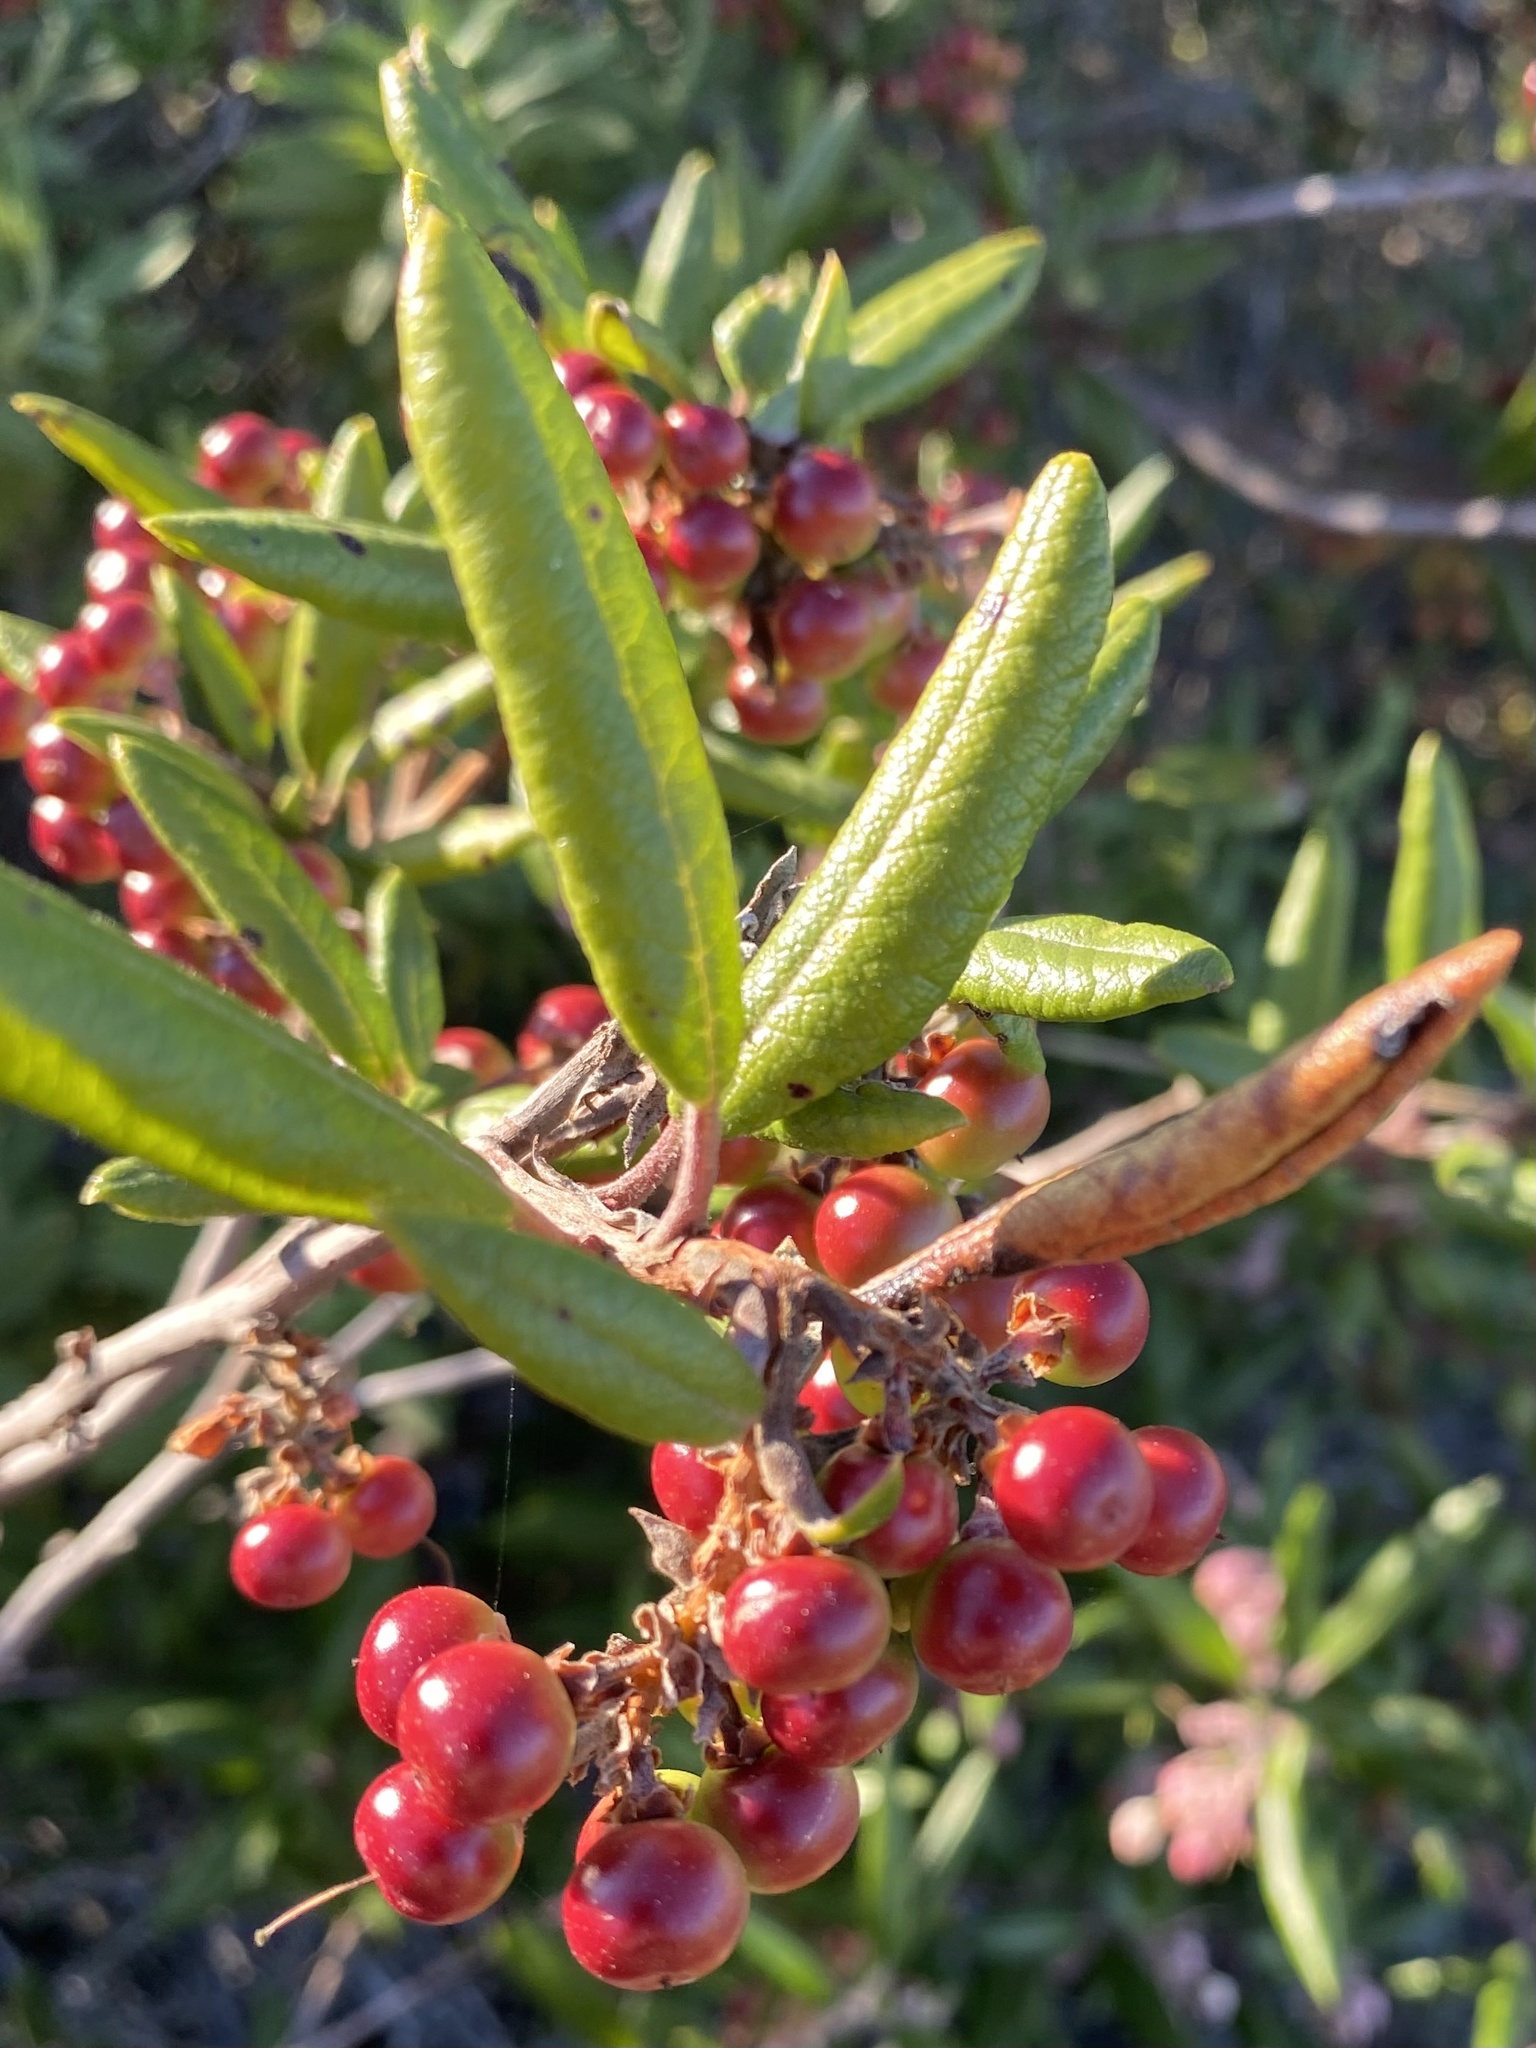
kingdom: Plantae
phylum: Tracheophyta
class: Magnoliopsida
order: Ericales
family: Ericaceae
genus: Arctostaphylos
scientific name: Arctostaphylos bicolor
